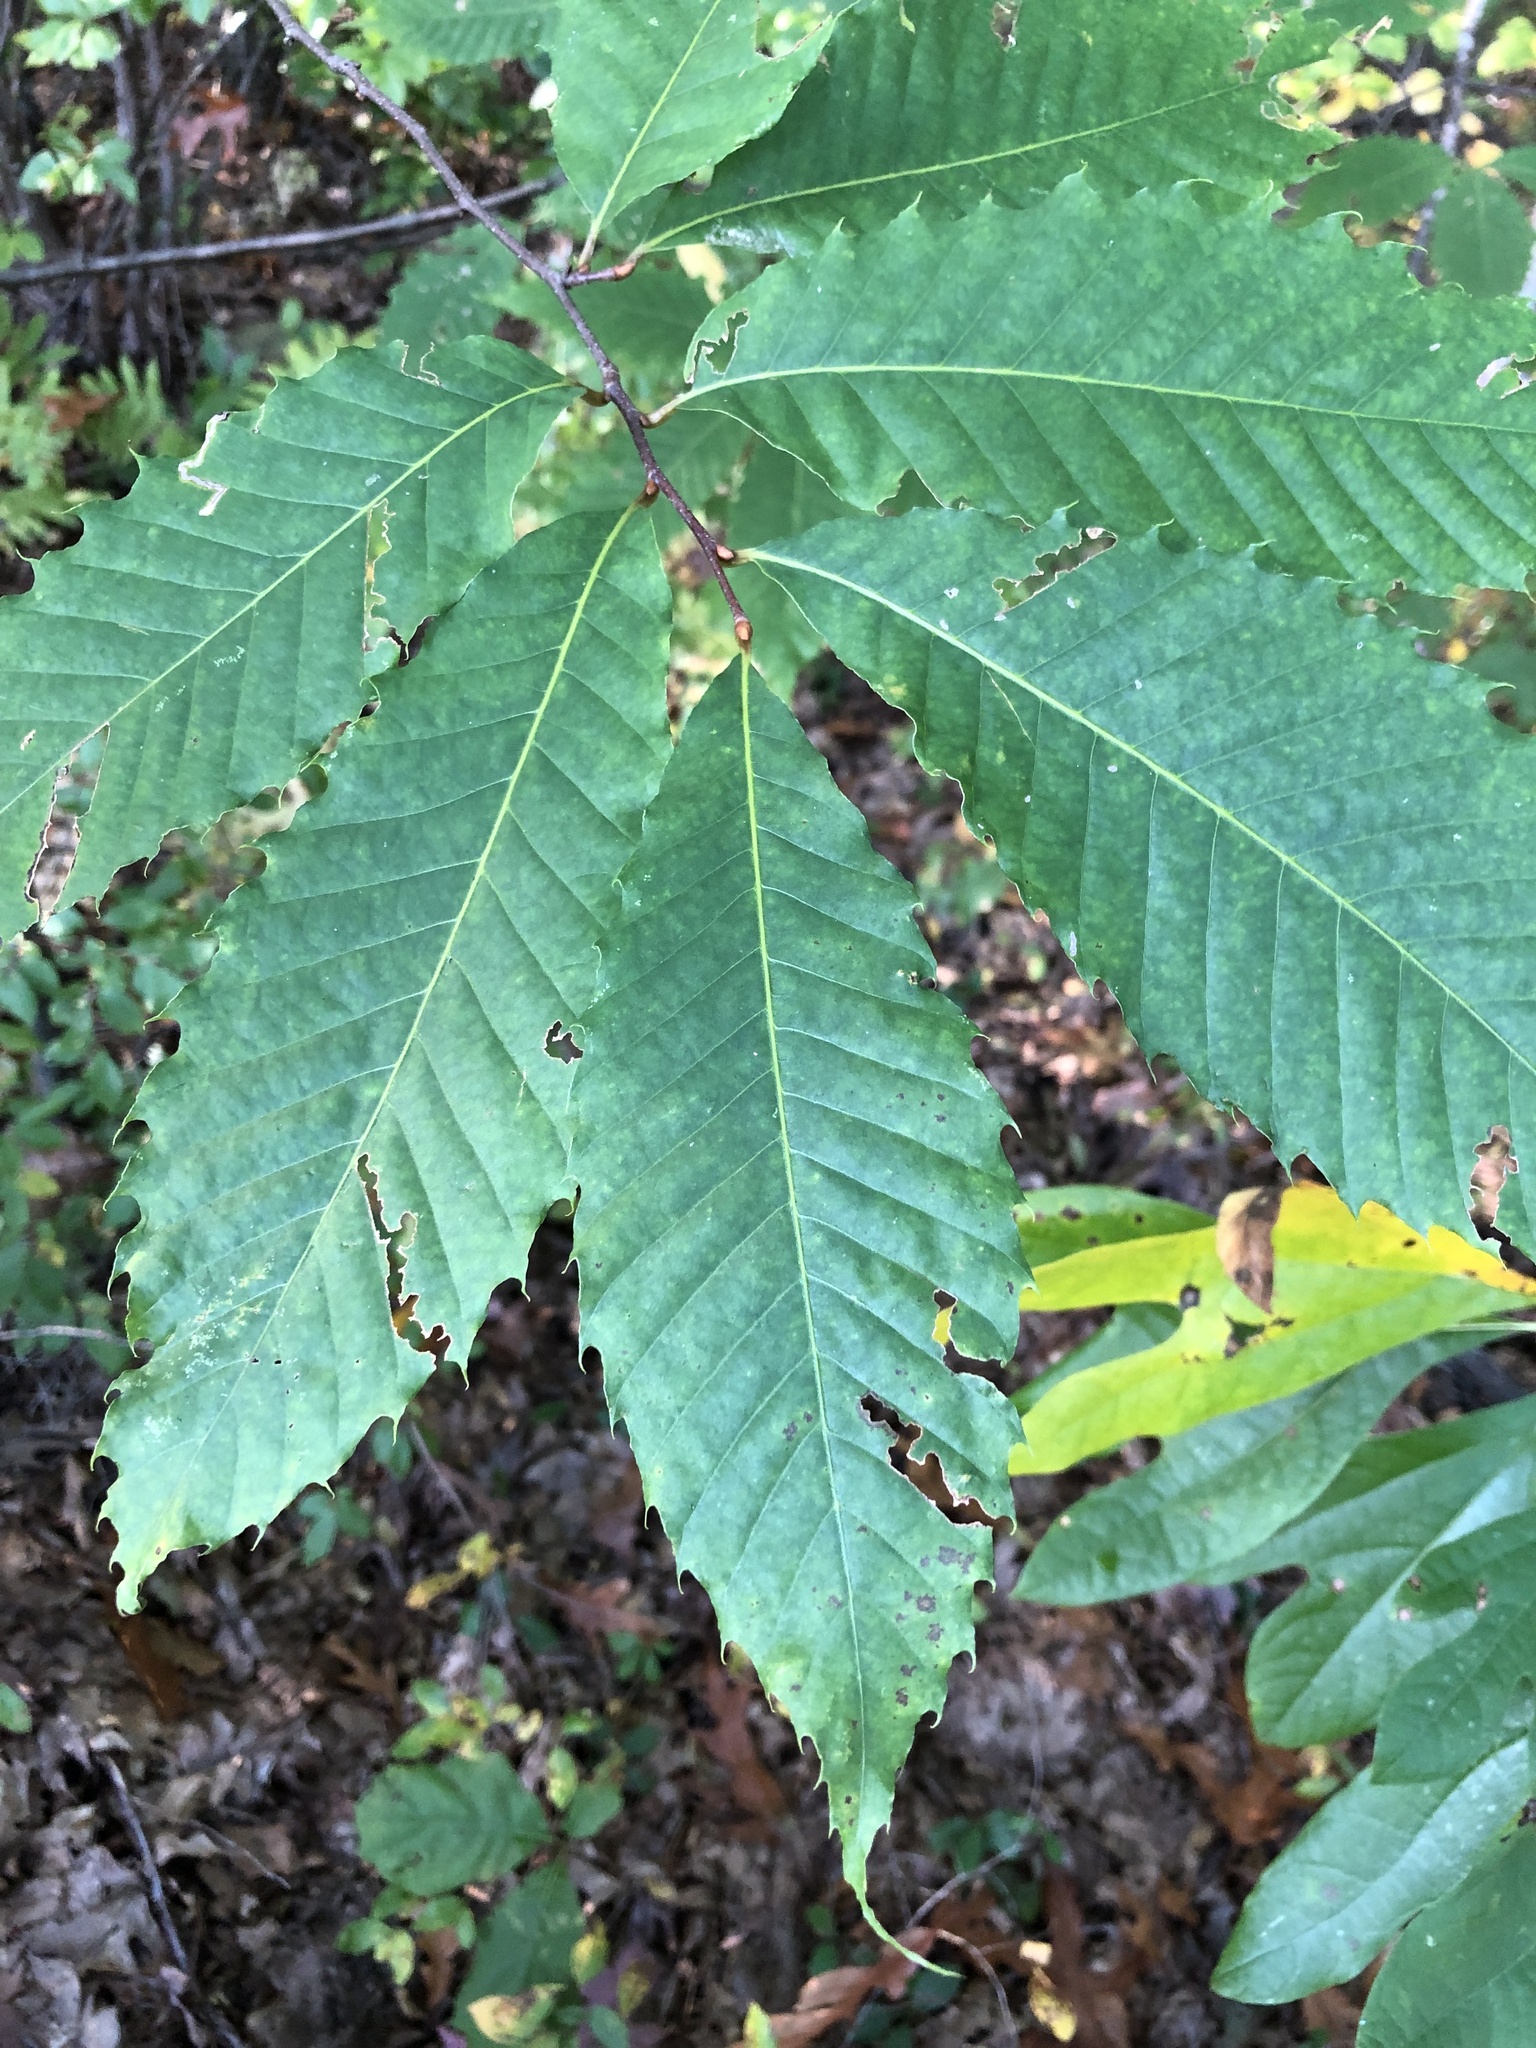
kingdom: Plantae
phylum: Tracheophyta
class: Magnoliopsida
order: Fagales
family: Fagaceae
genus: Castanea
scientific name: Castanea dentata
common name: American chestnut
